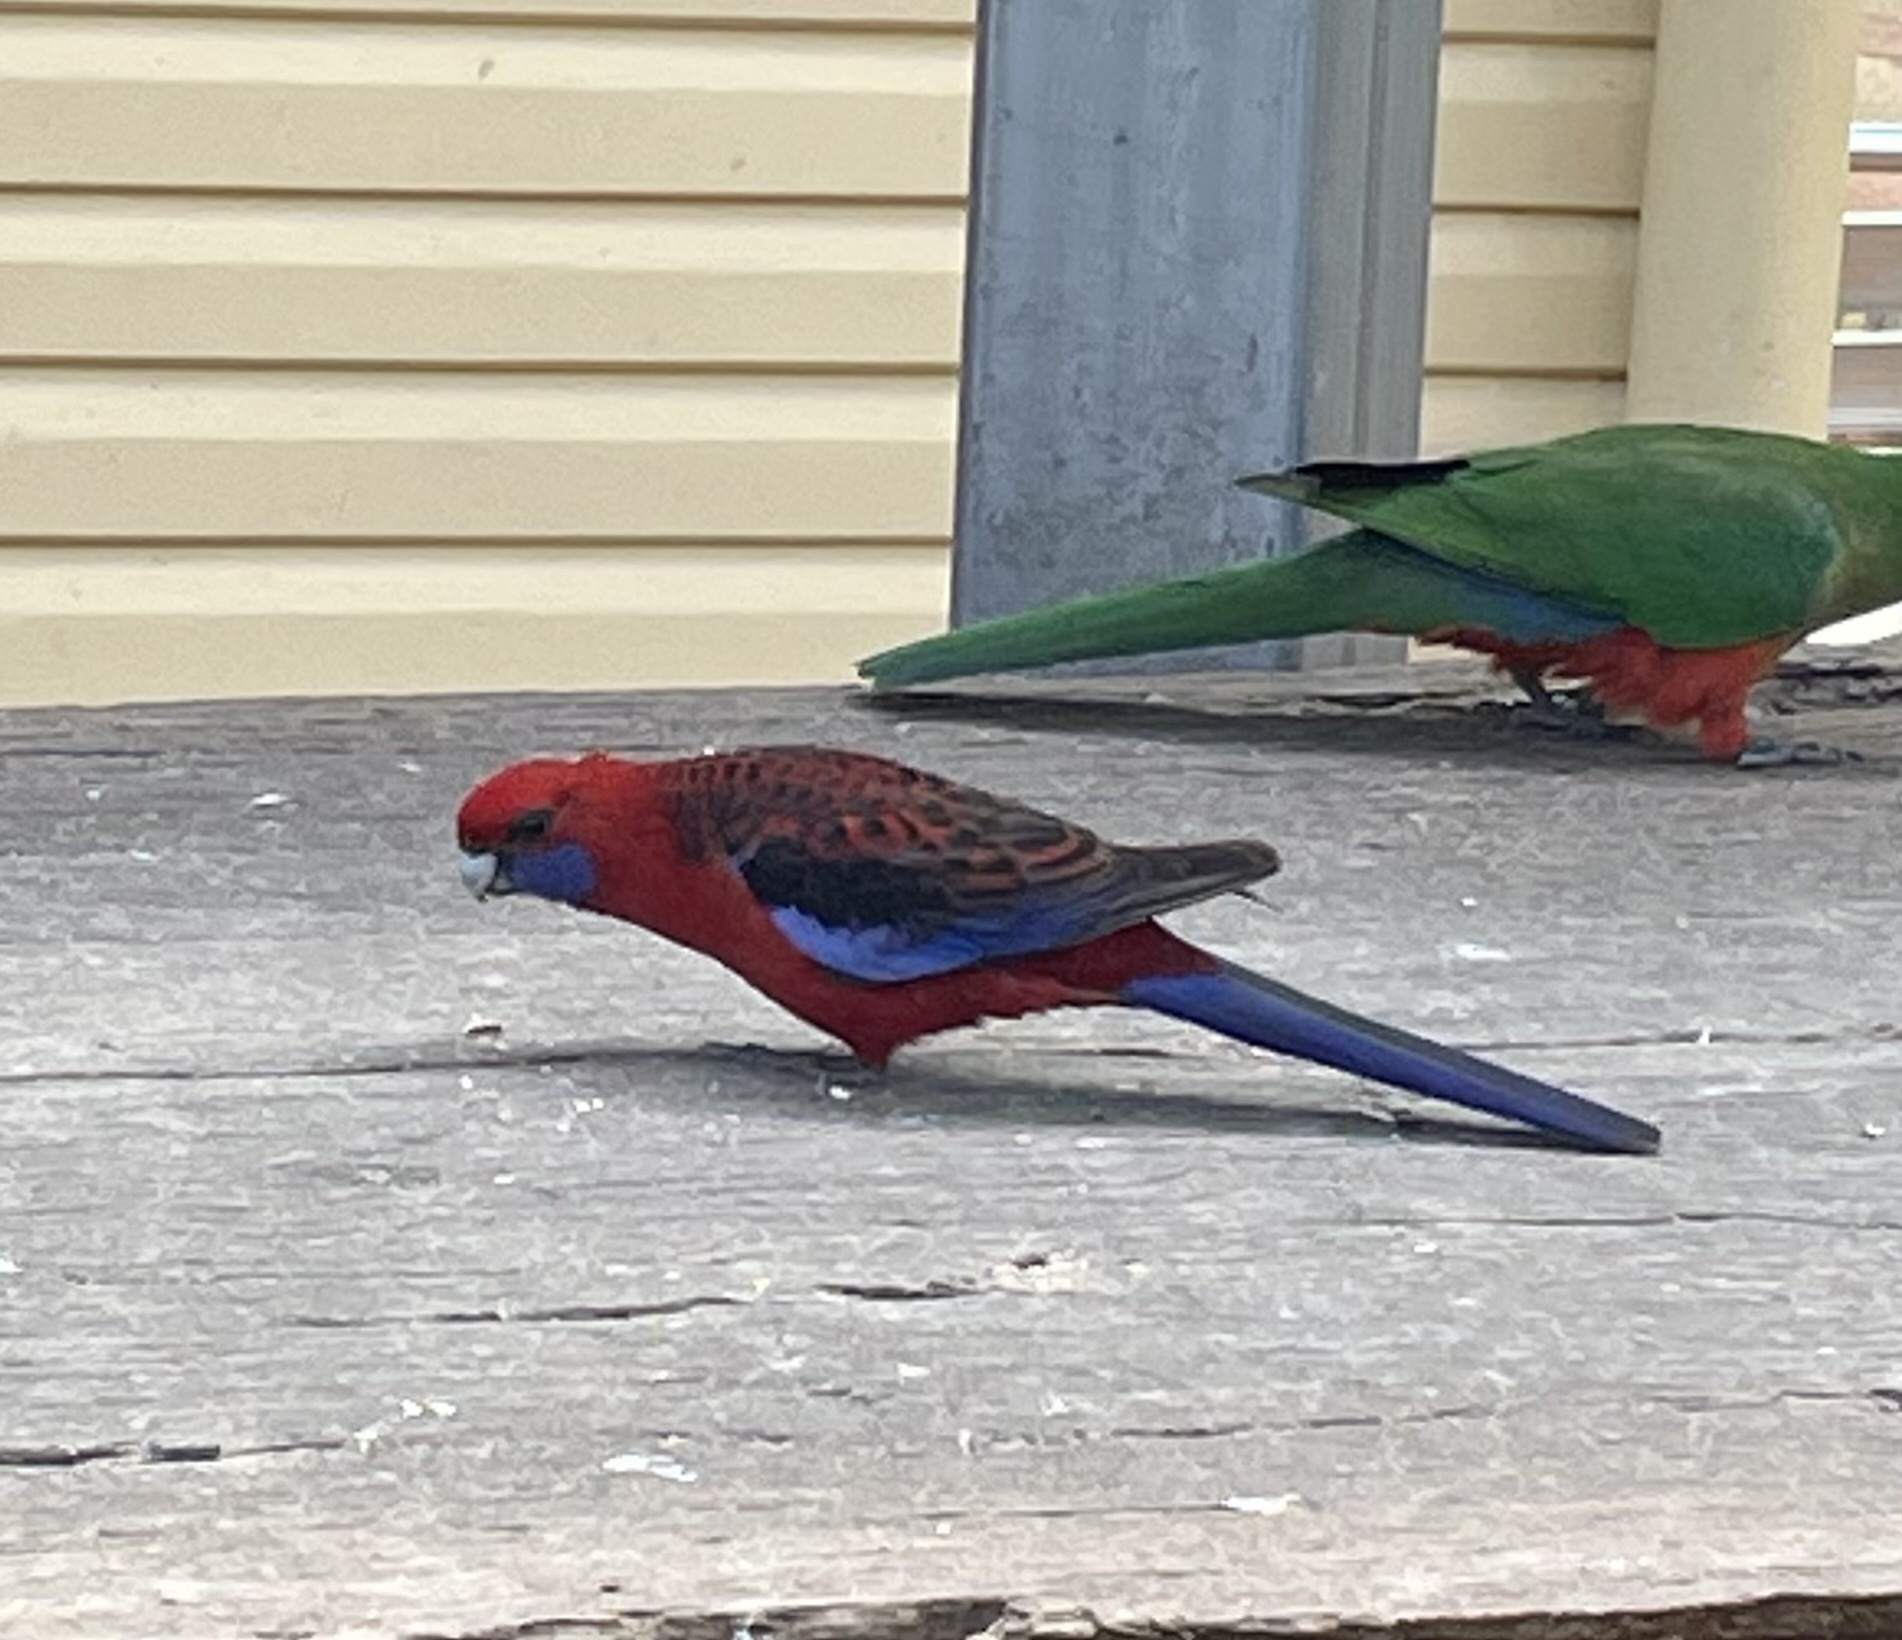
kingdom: Animalia
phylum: Chordata
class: Aves
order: Psittaciformes
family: Psittacidae
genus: Platycercus
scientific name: Platycercus elegans
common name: Crimson rosella
